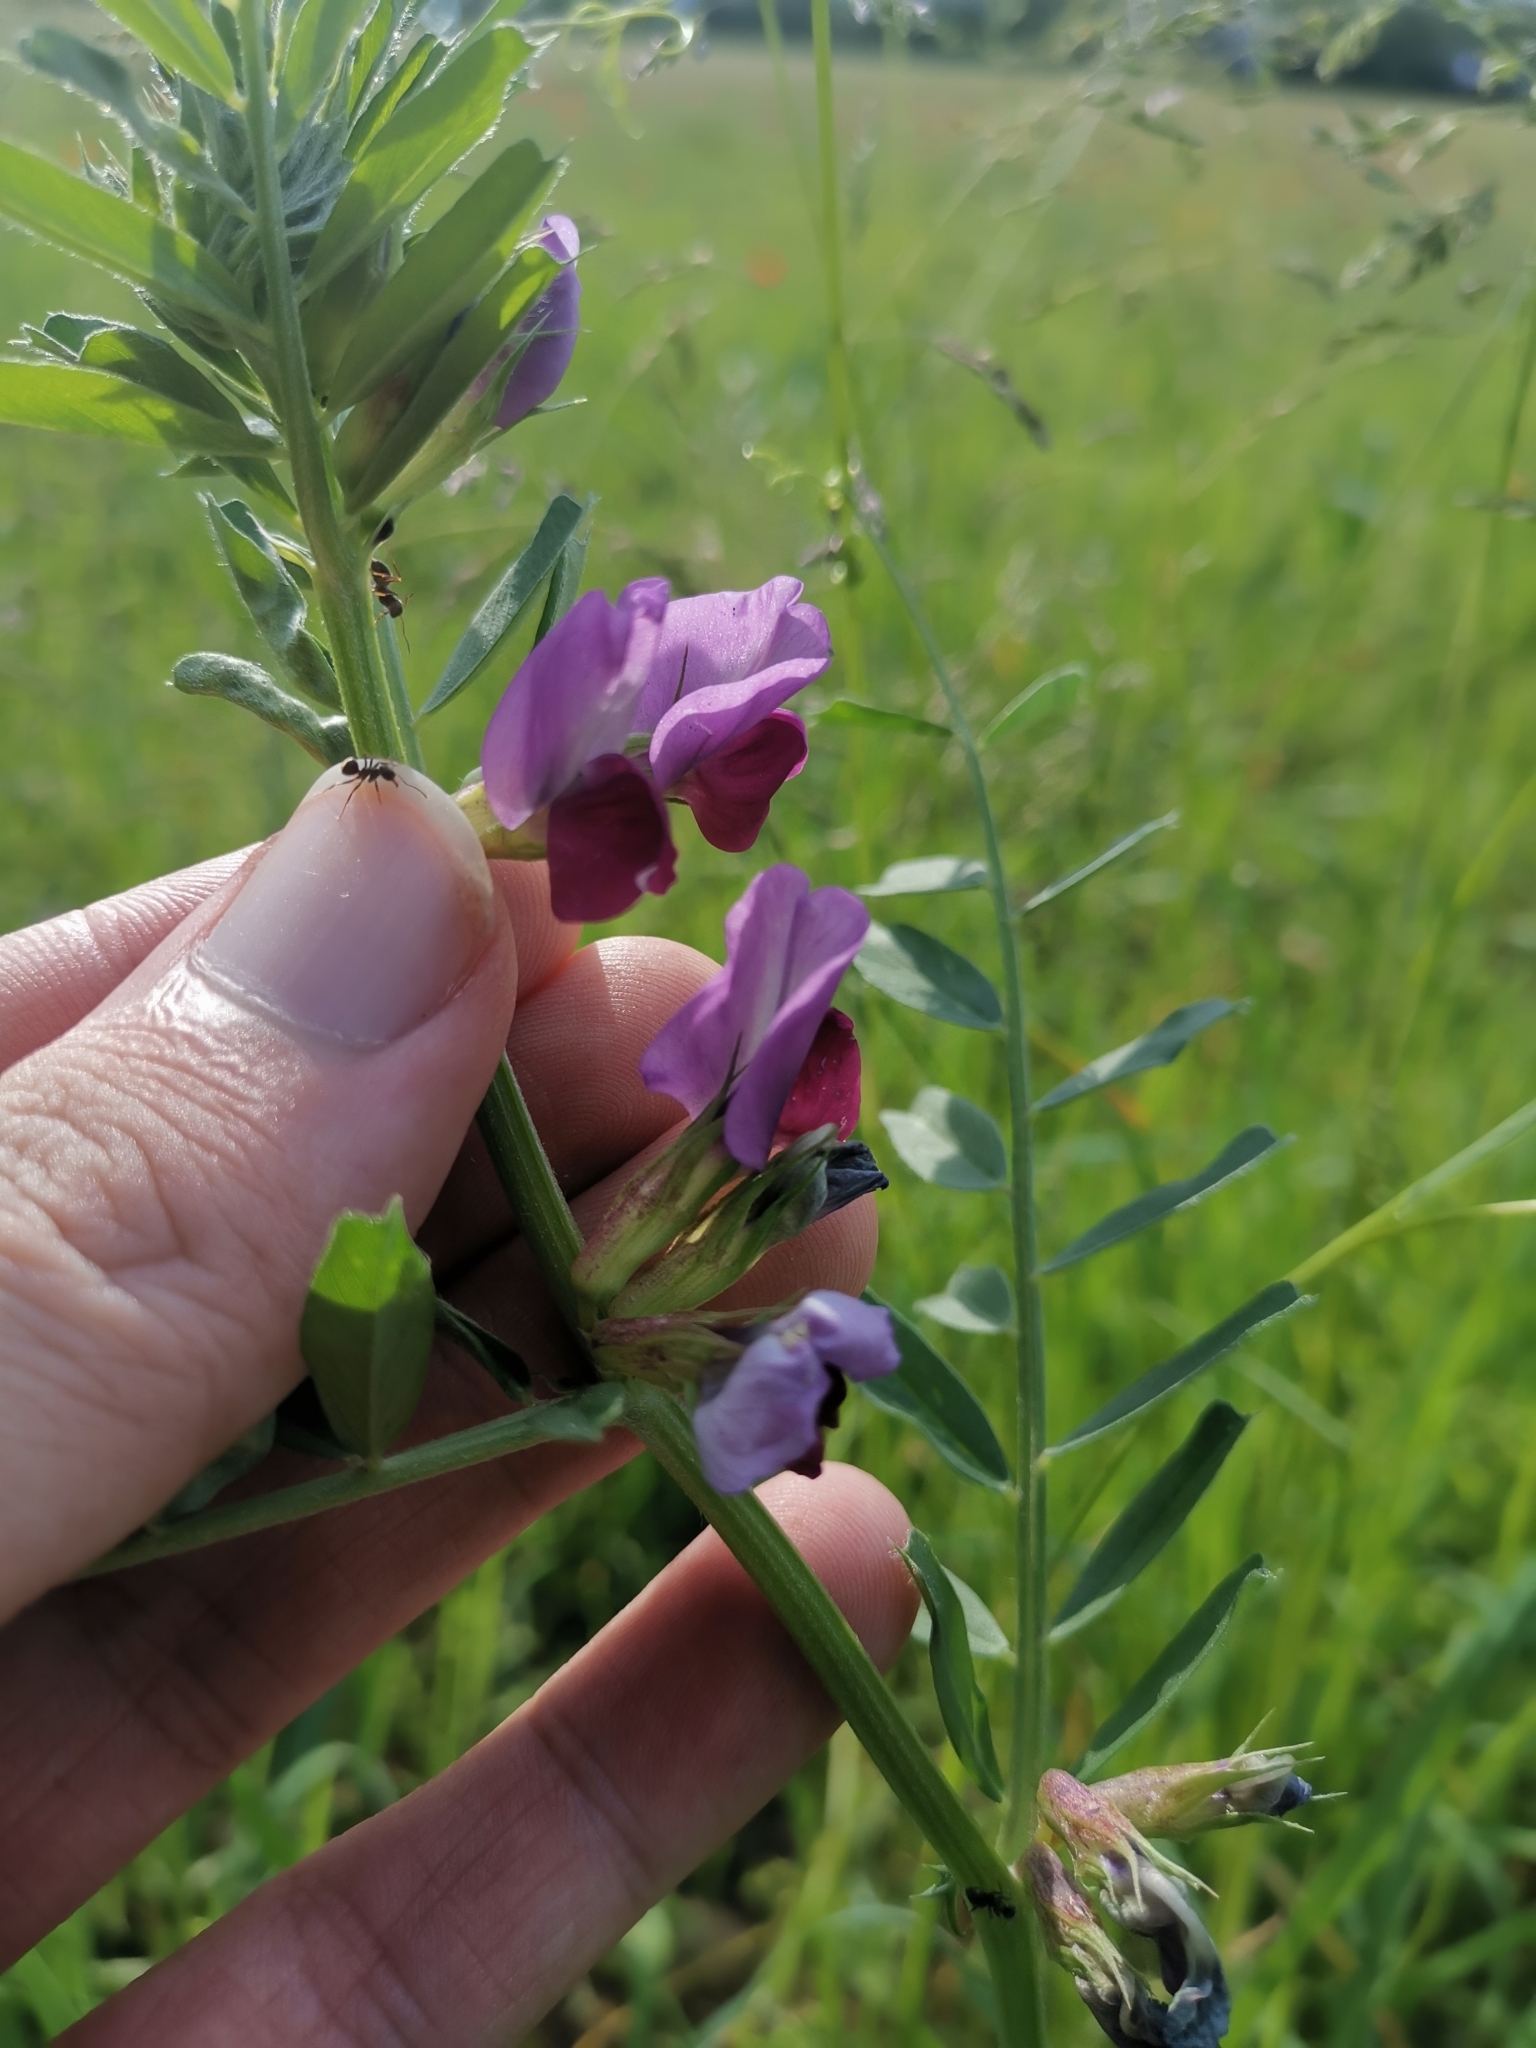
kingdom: Plantae
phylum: Tracheophyta
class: Magnoliopsida
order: Fabales
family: Fabaceae
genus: Vicia
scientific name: Vicia sativa
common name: Garden vetch
